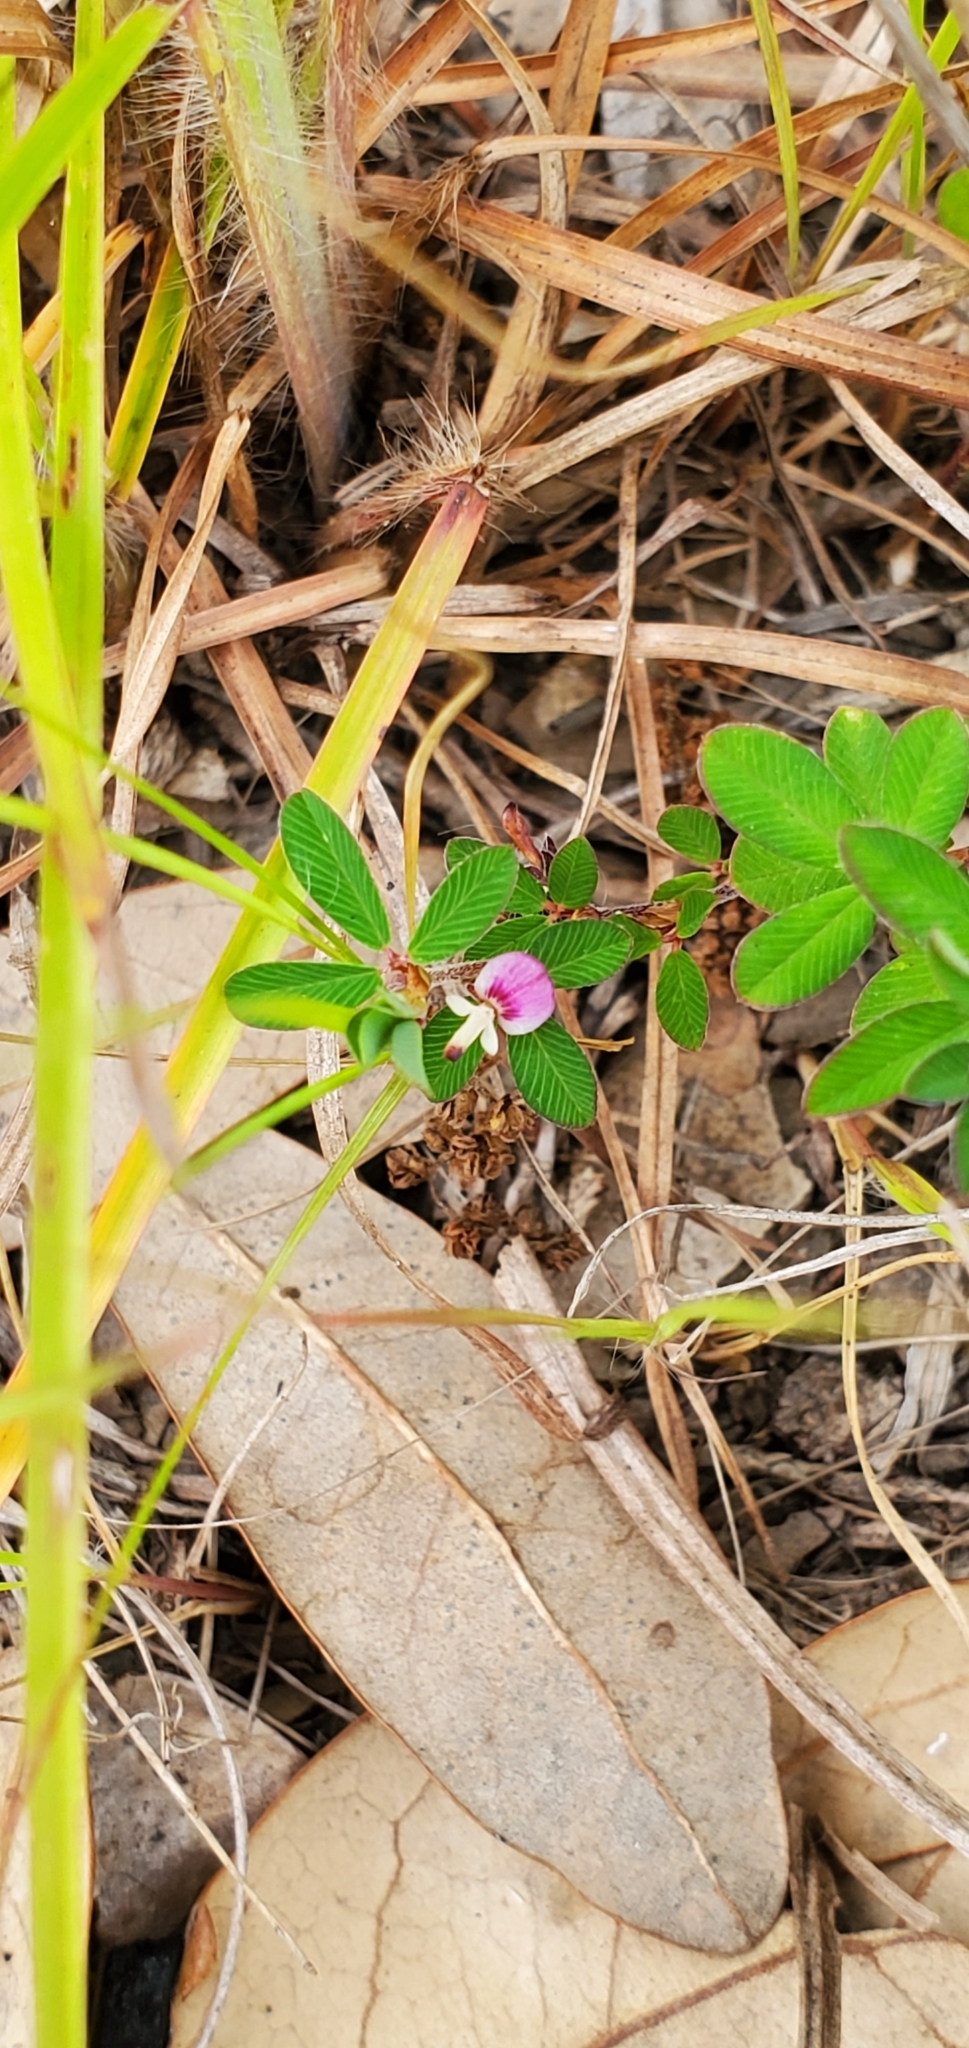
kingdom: Plantae
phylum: Tracheophyta
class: Magnoliopsida
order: Fabales
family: Fabaceae
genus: Kummerowia
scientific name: Kummerowia striata
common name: Japanese clover
